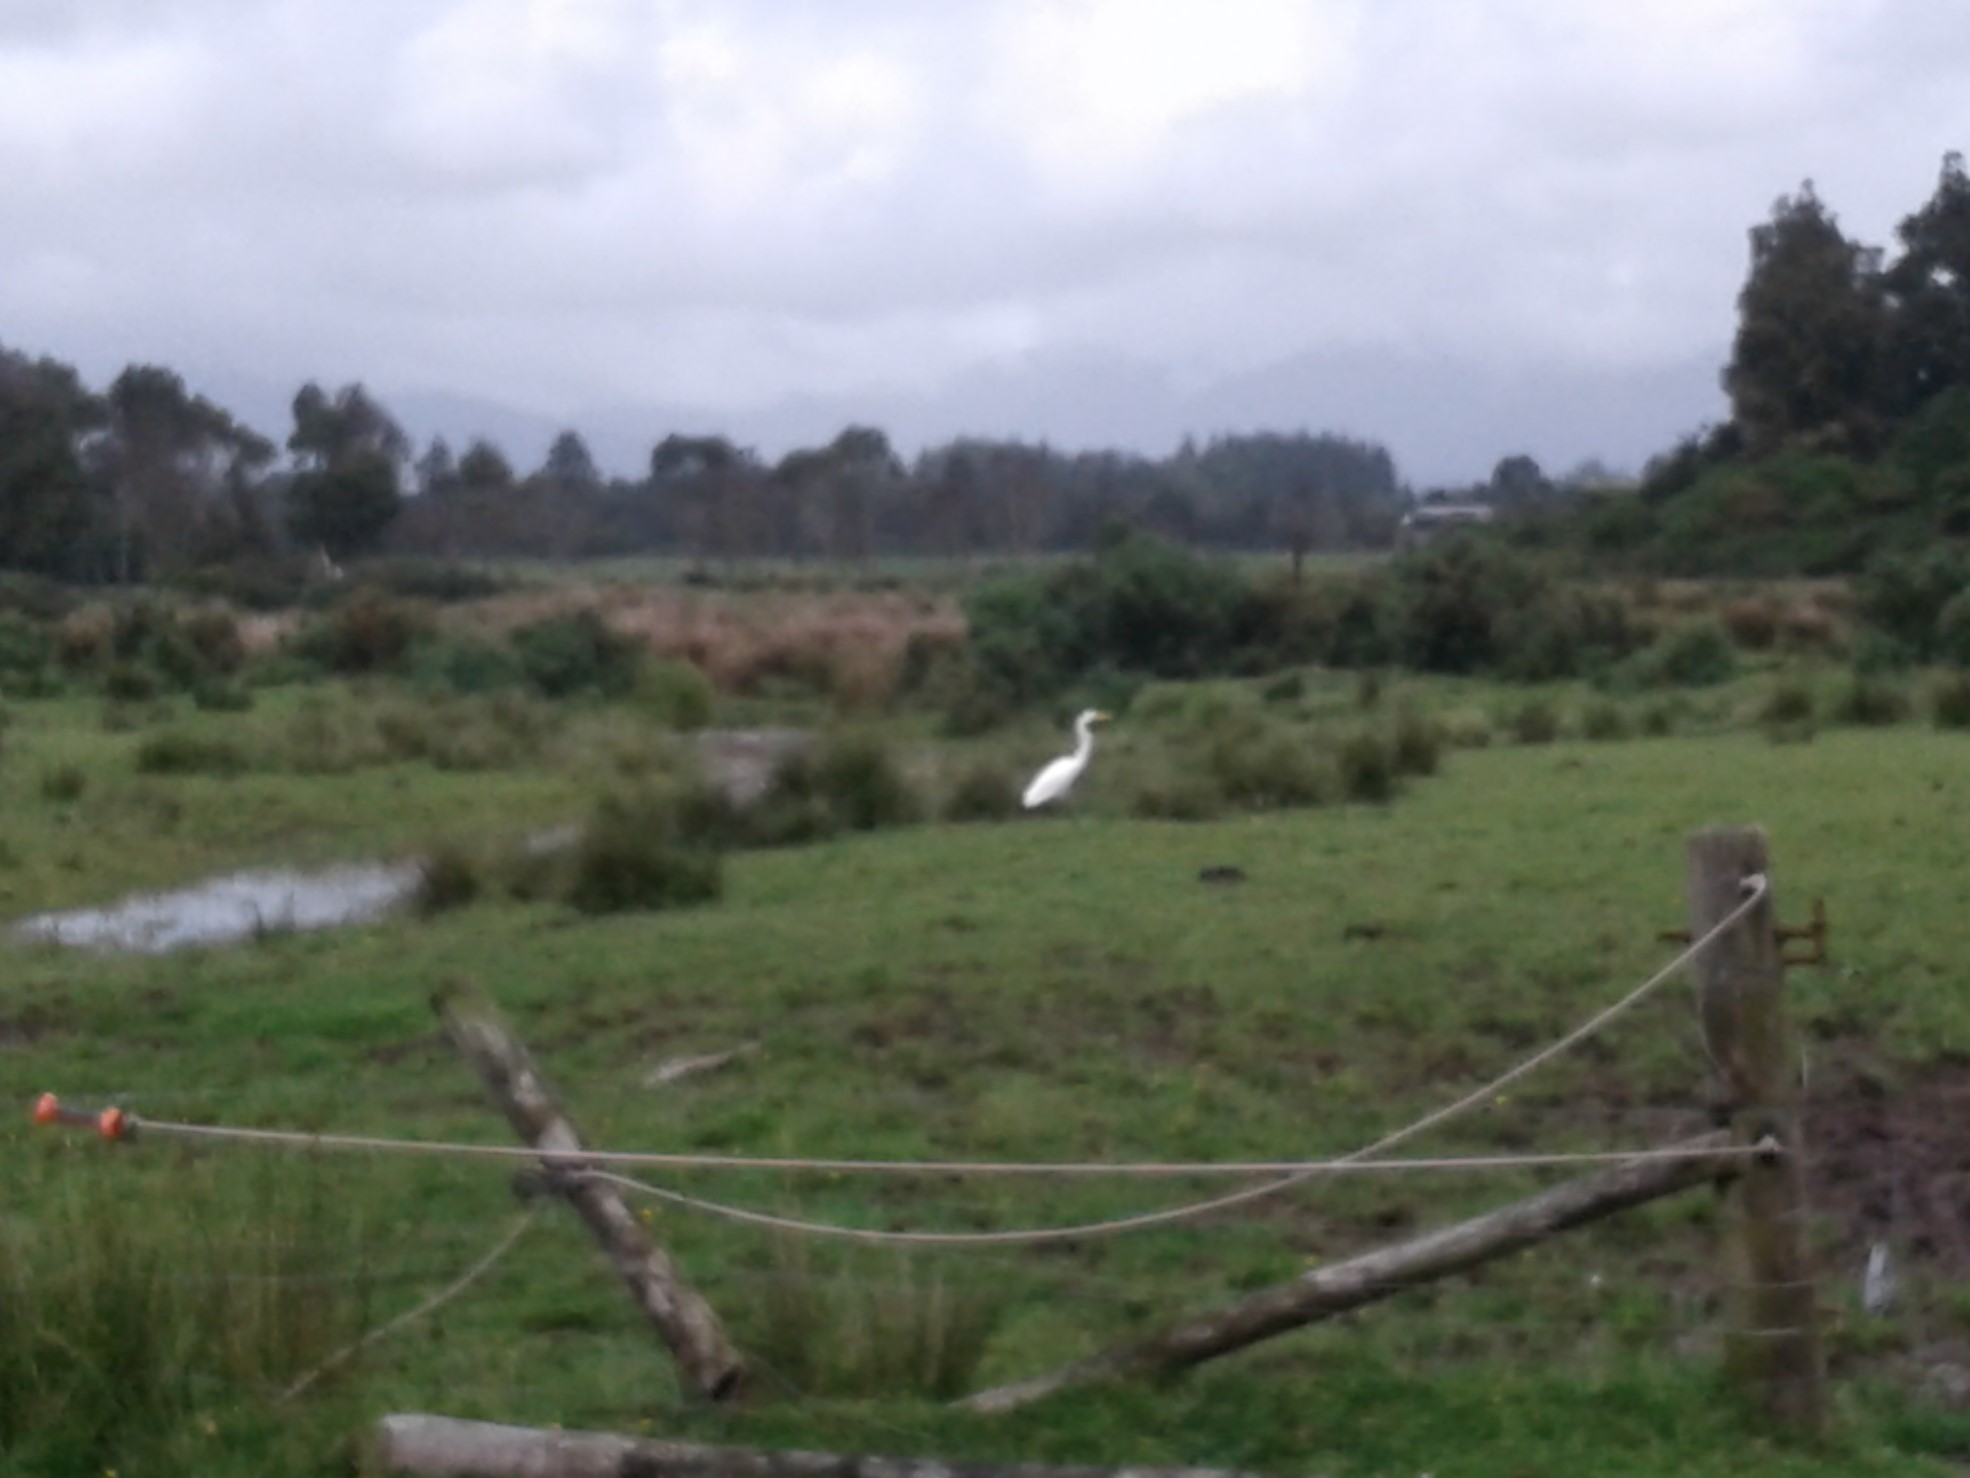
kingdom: Animalia
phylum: Chordata
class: Aves
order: Pelecaniformes
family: Ardeidae
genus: Ardea
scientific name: Ardea modesta
